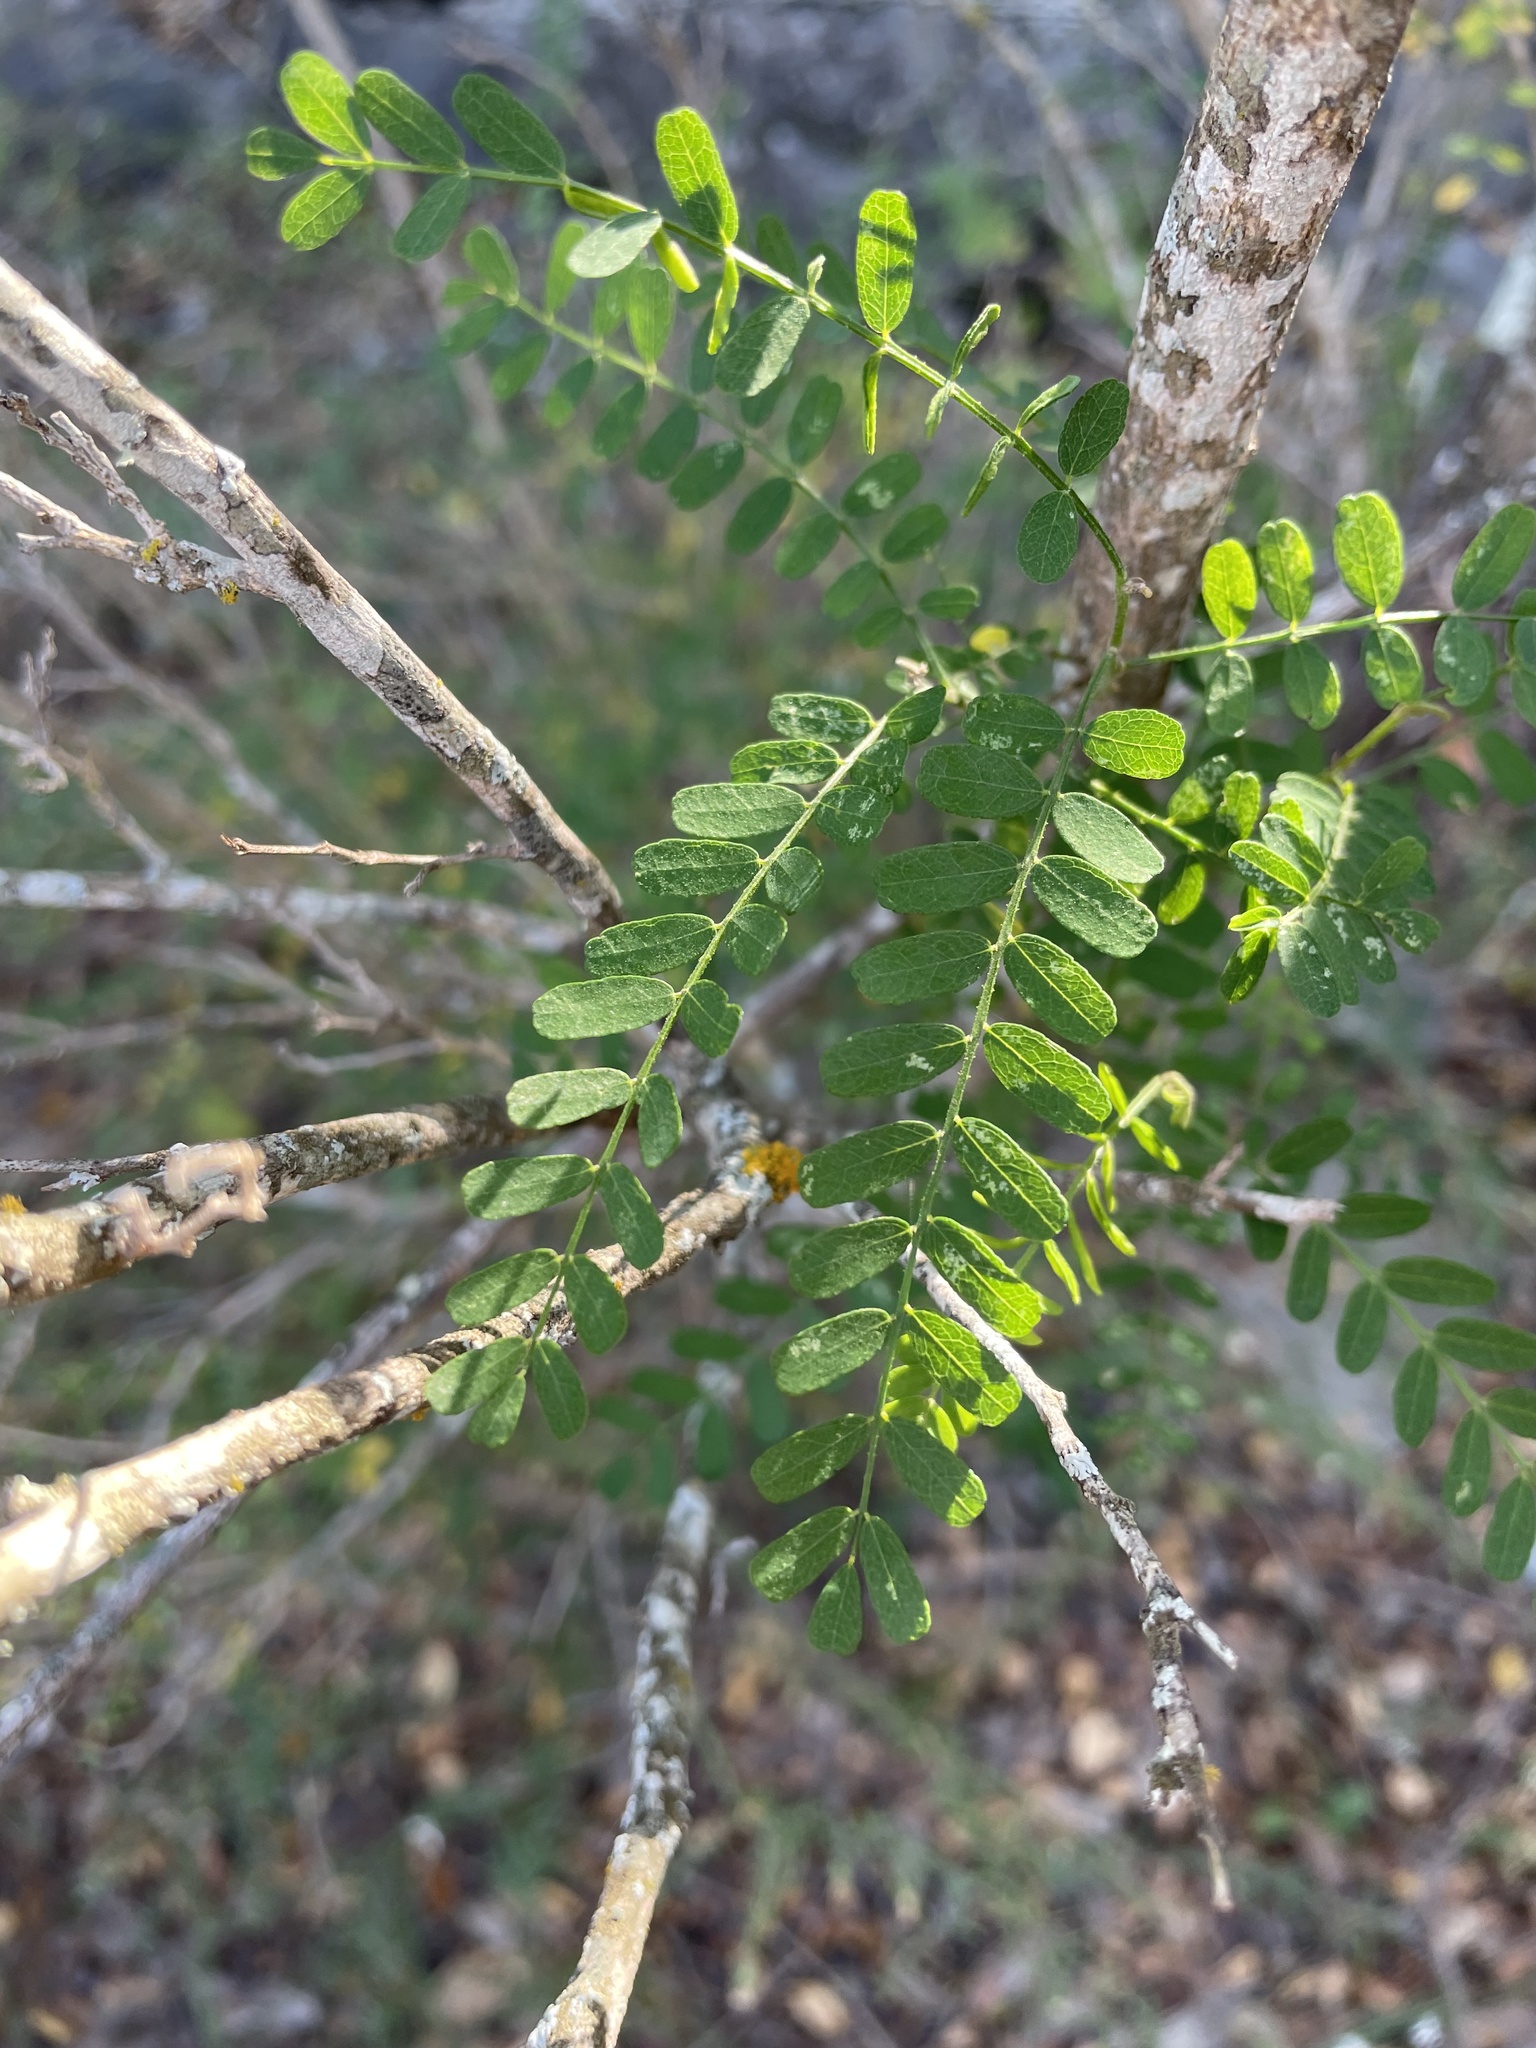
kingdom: Plantae
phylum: Tracheophyta
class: Magnoliopsida
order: Fabales
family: Fabaceae
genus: Eysenhardtia
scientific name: Eysenhardtia texana
